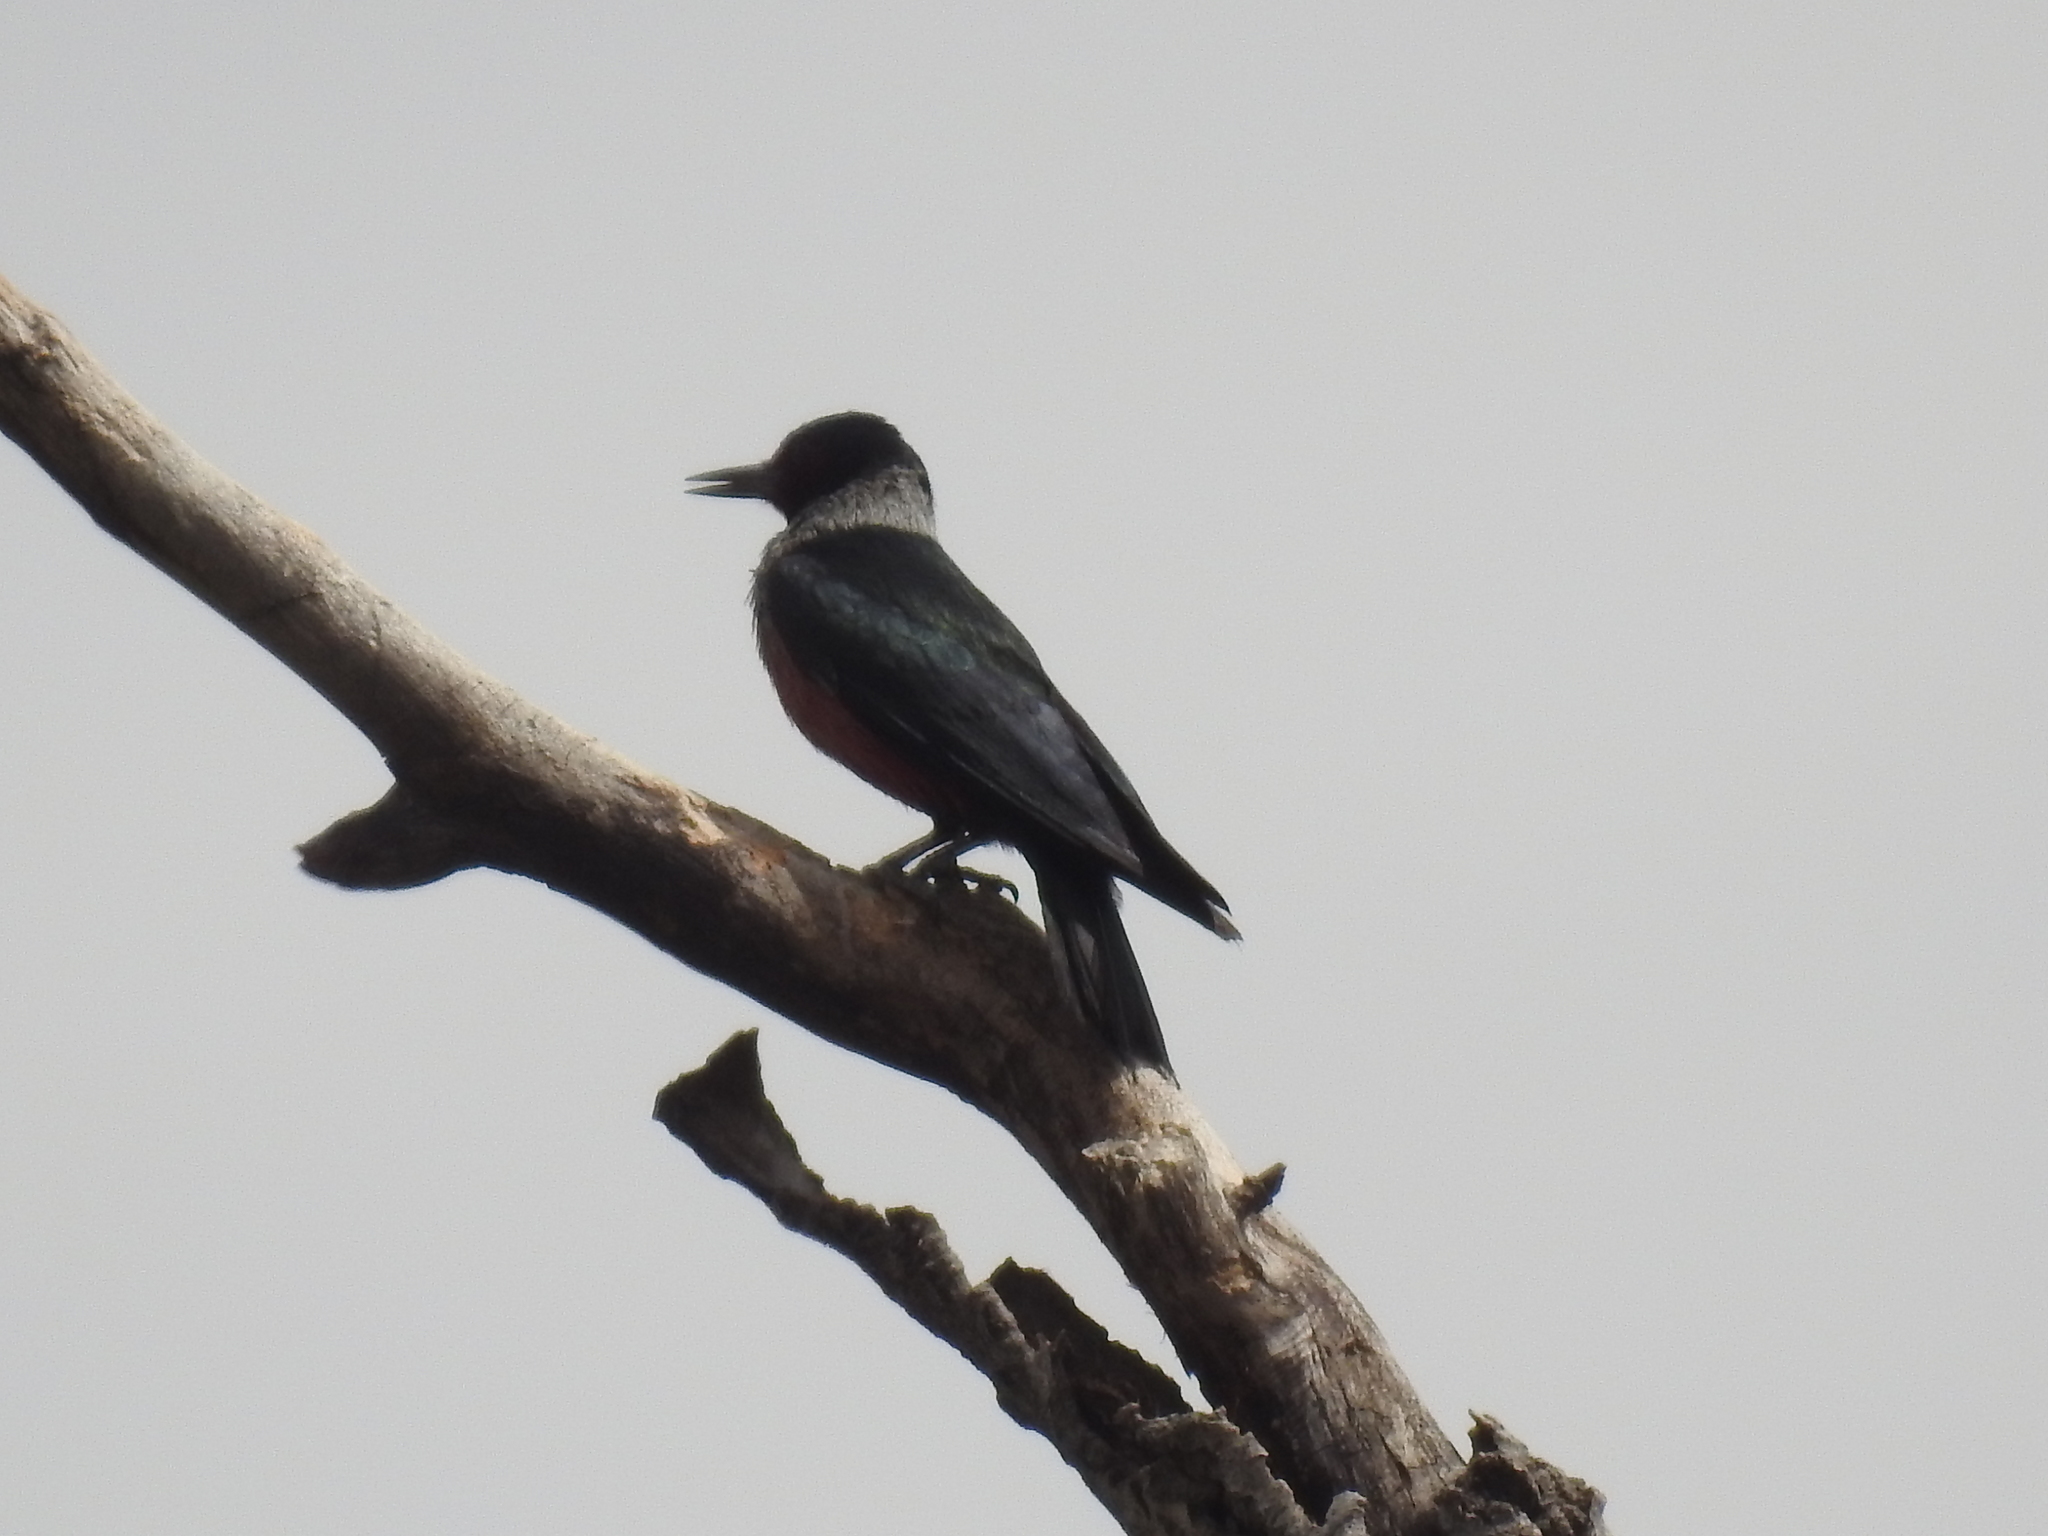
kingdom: Animalia
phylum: Chordata
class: Aves
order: Piciformes
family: Picidae
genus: Melanerpes
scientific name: Melanerpes lewis
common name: Lewis's woodpecker
